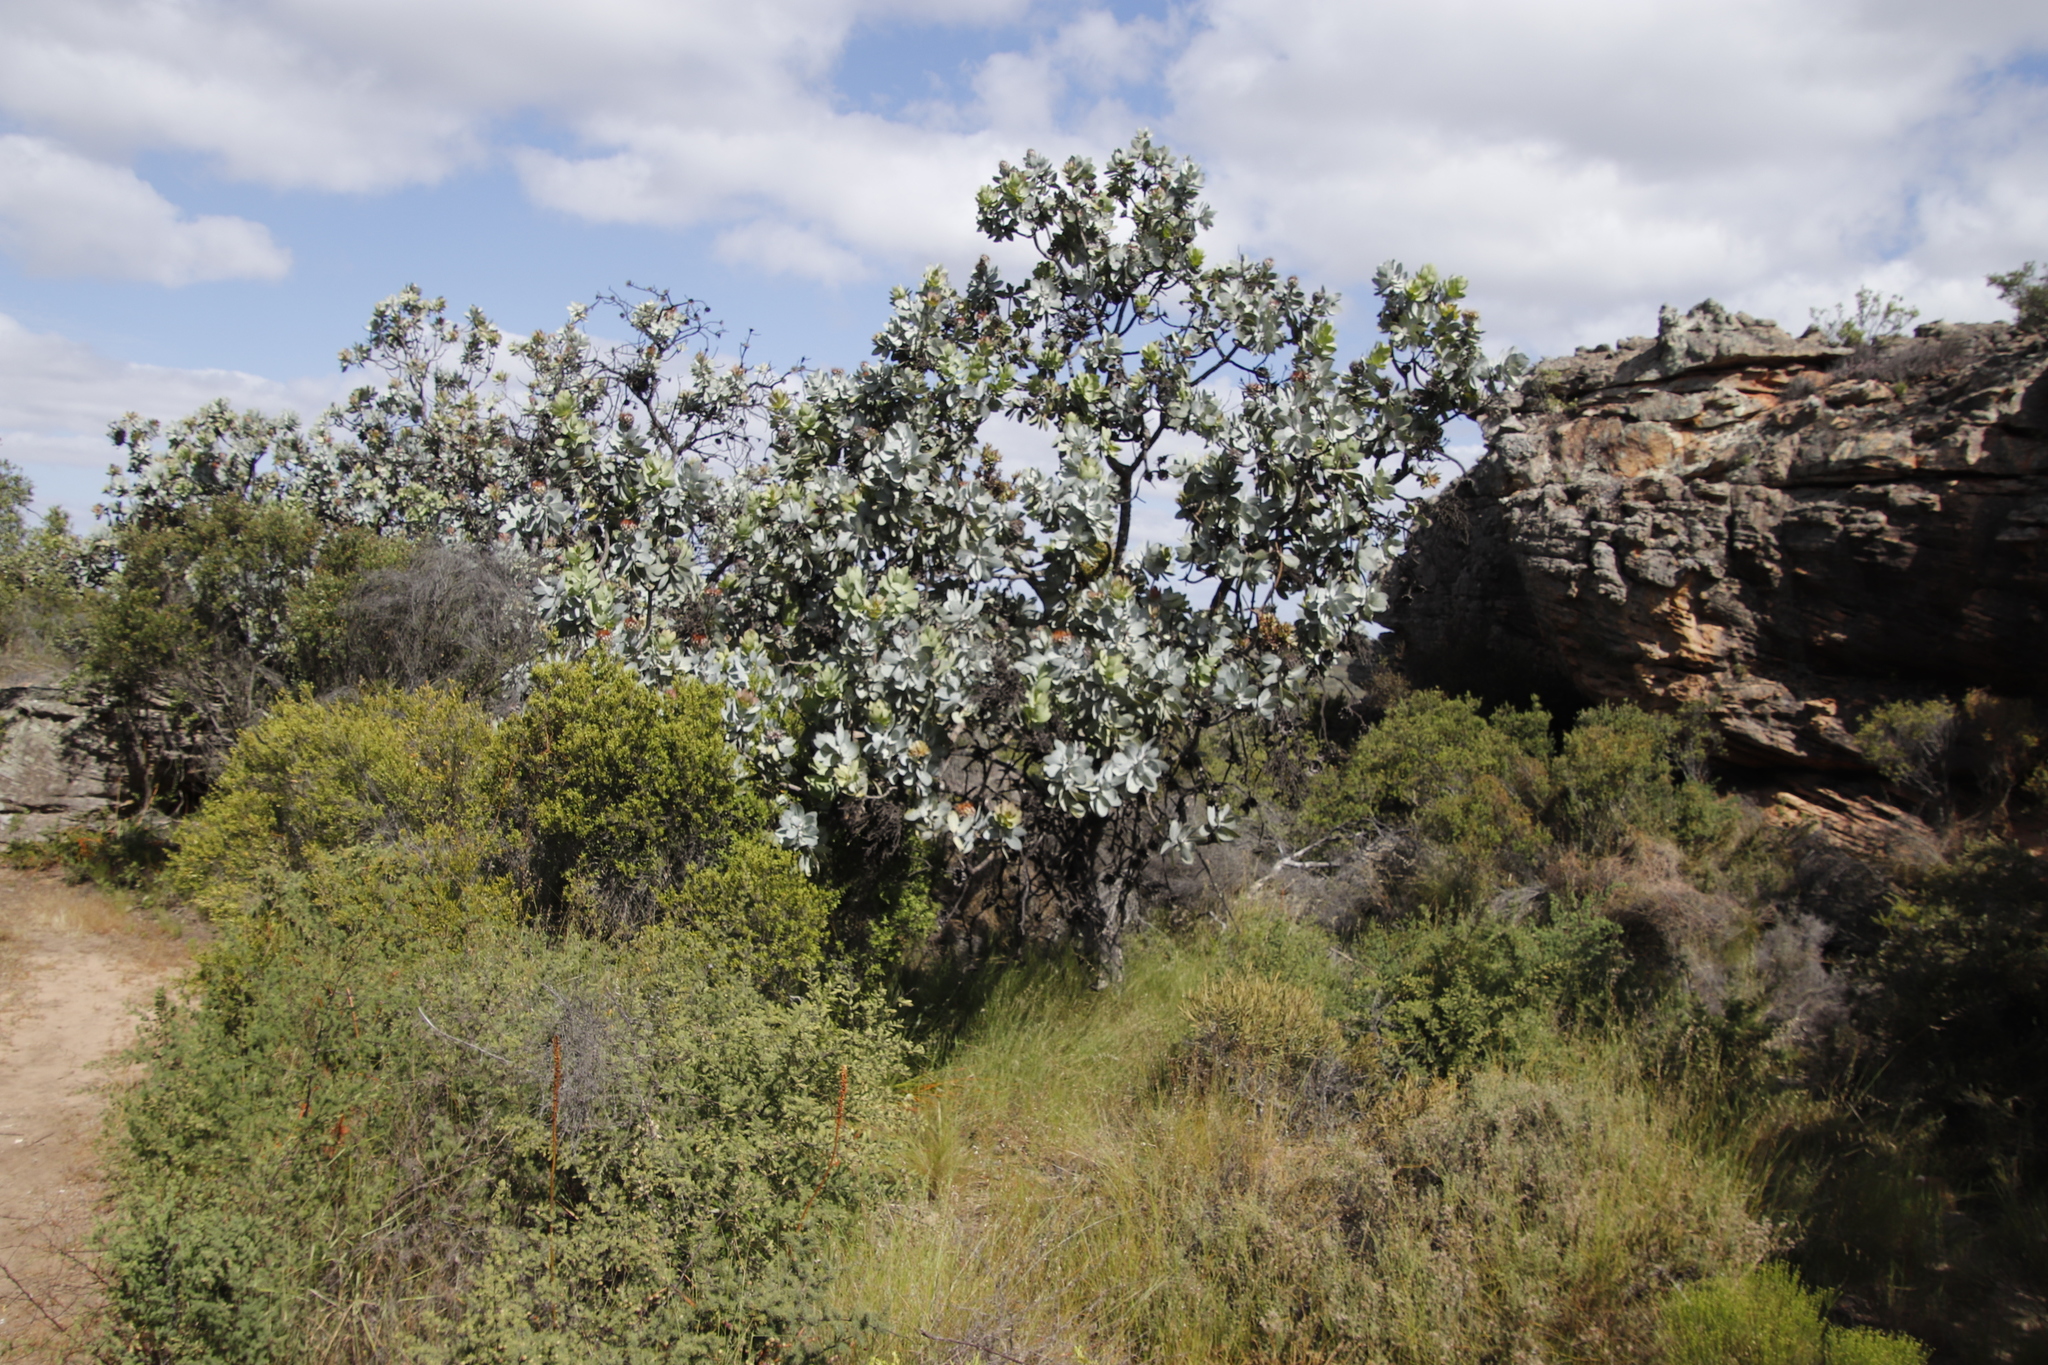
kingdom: Plantae
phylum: Tracheophyta
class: Magnoliopsida
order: Proteales
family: Proteaceae
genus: Protea
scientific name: Protea nitida
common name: Tree protea
